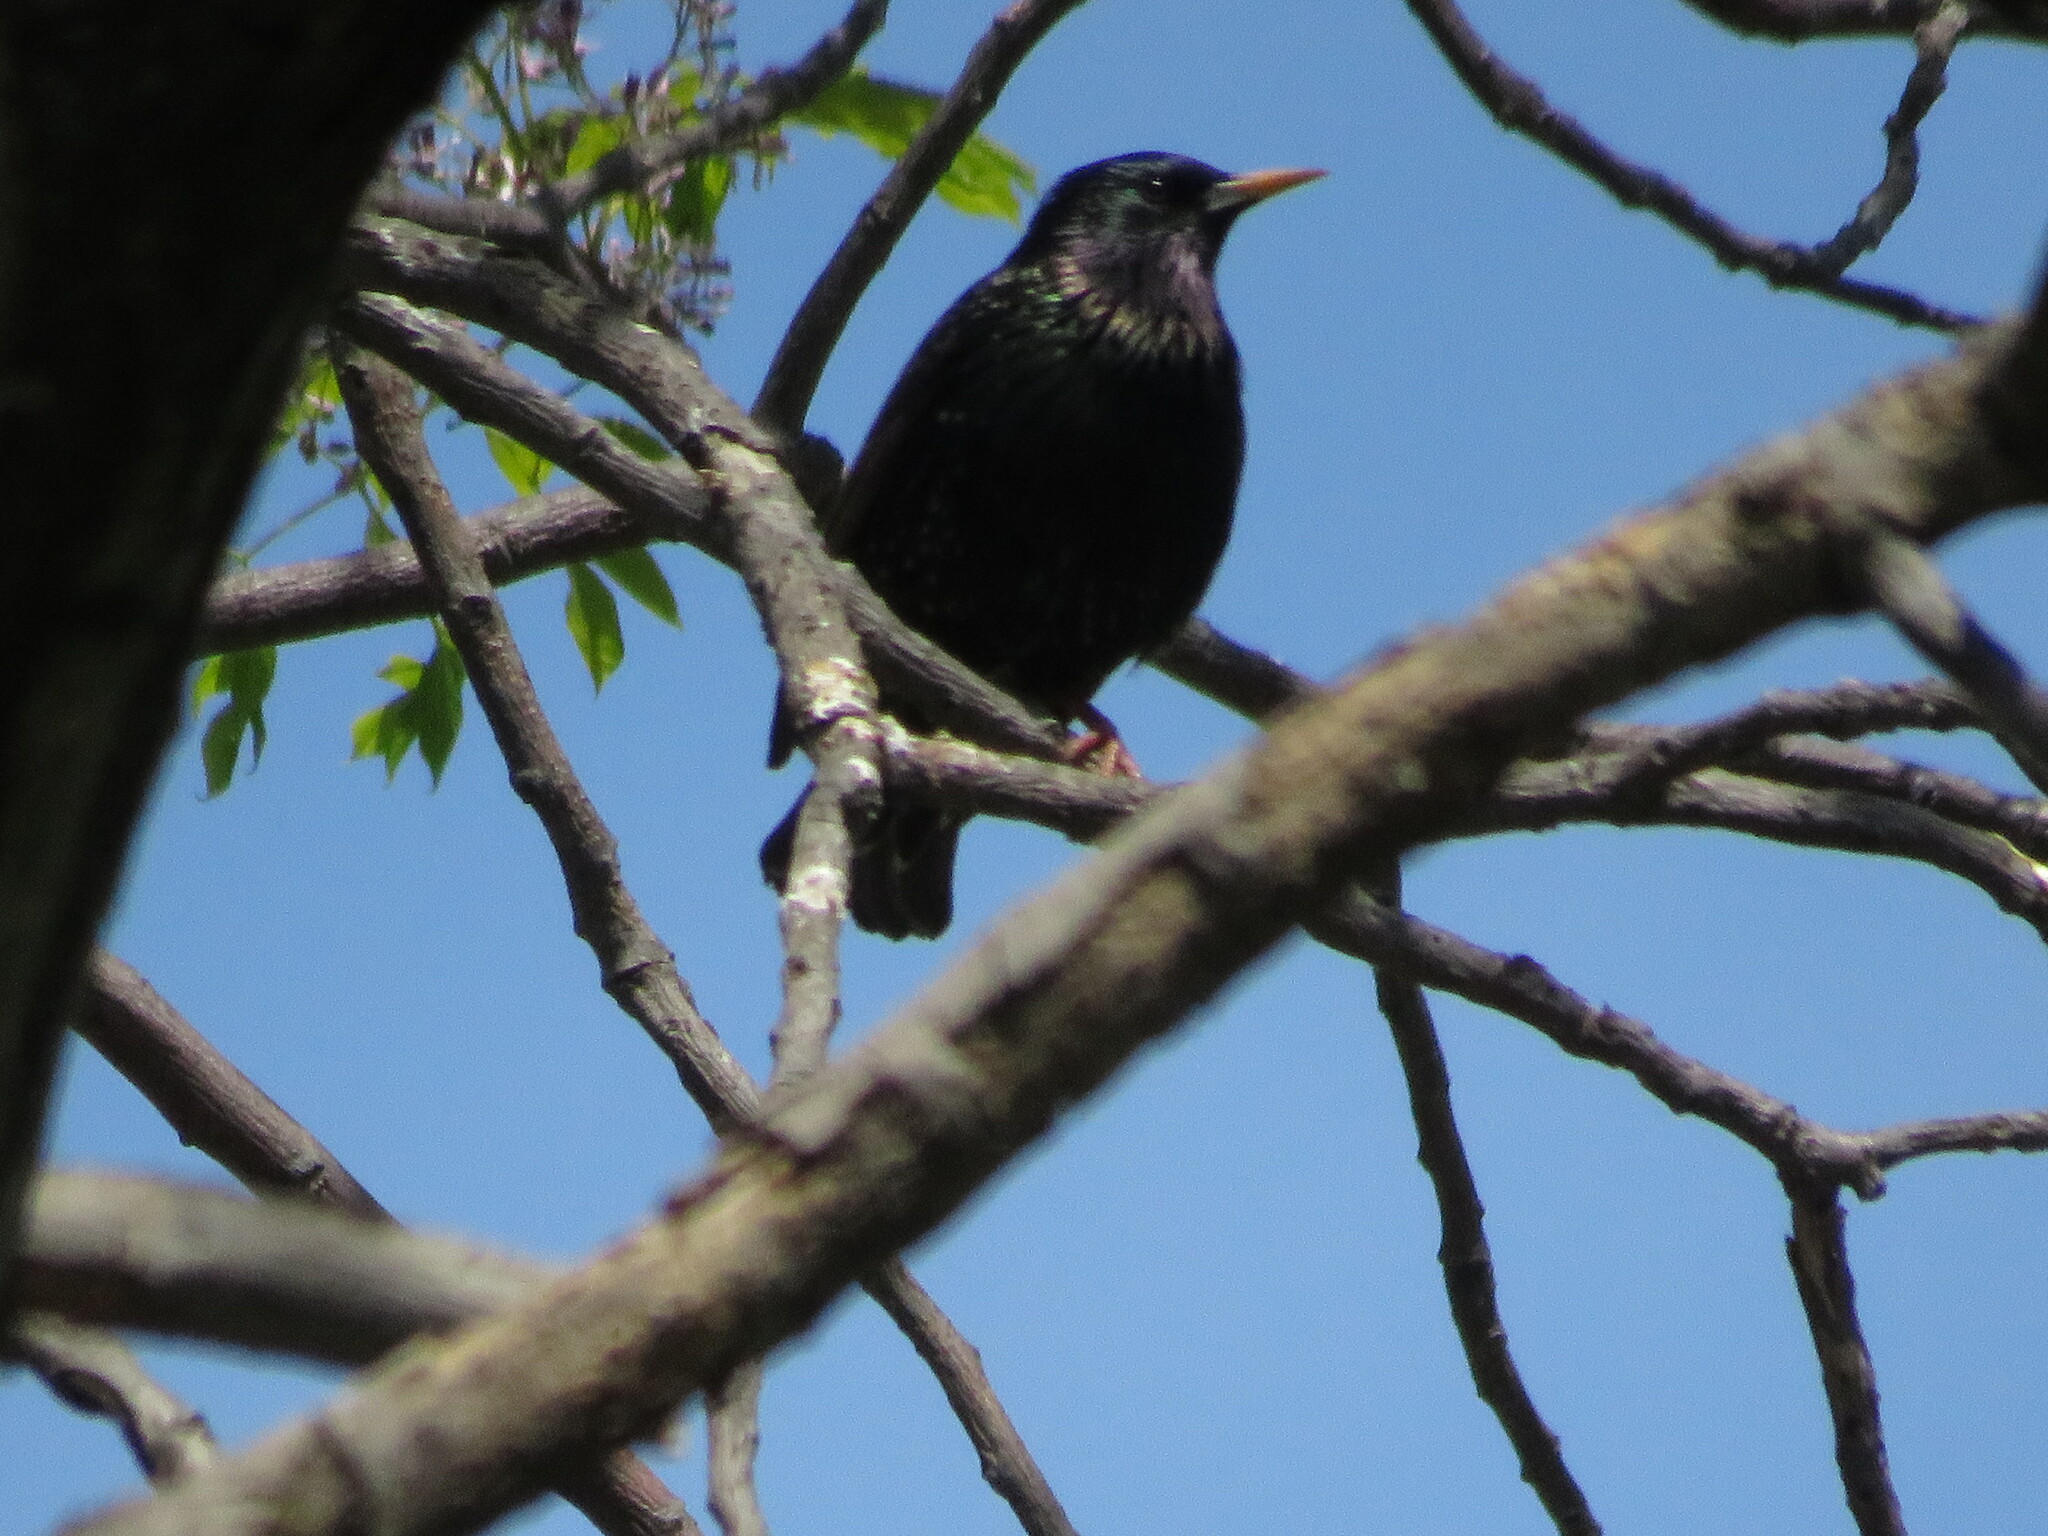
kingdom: Animalia
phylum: Chordata
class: Aves
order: Passeriformes
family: Sturnidae
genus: Sturnus
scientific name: Sturnus vulgaris
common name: Common starling
